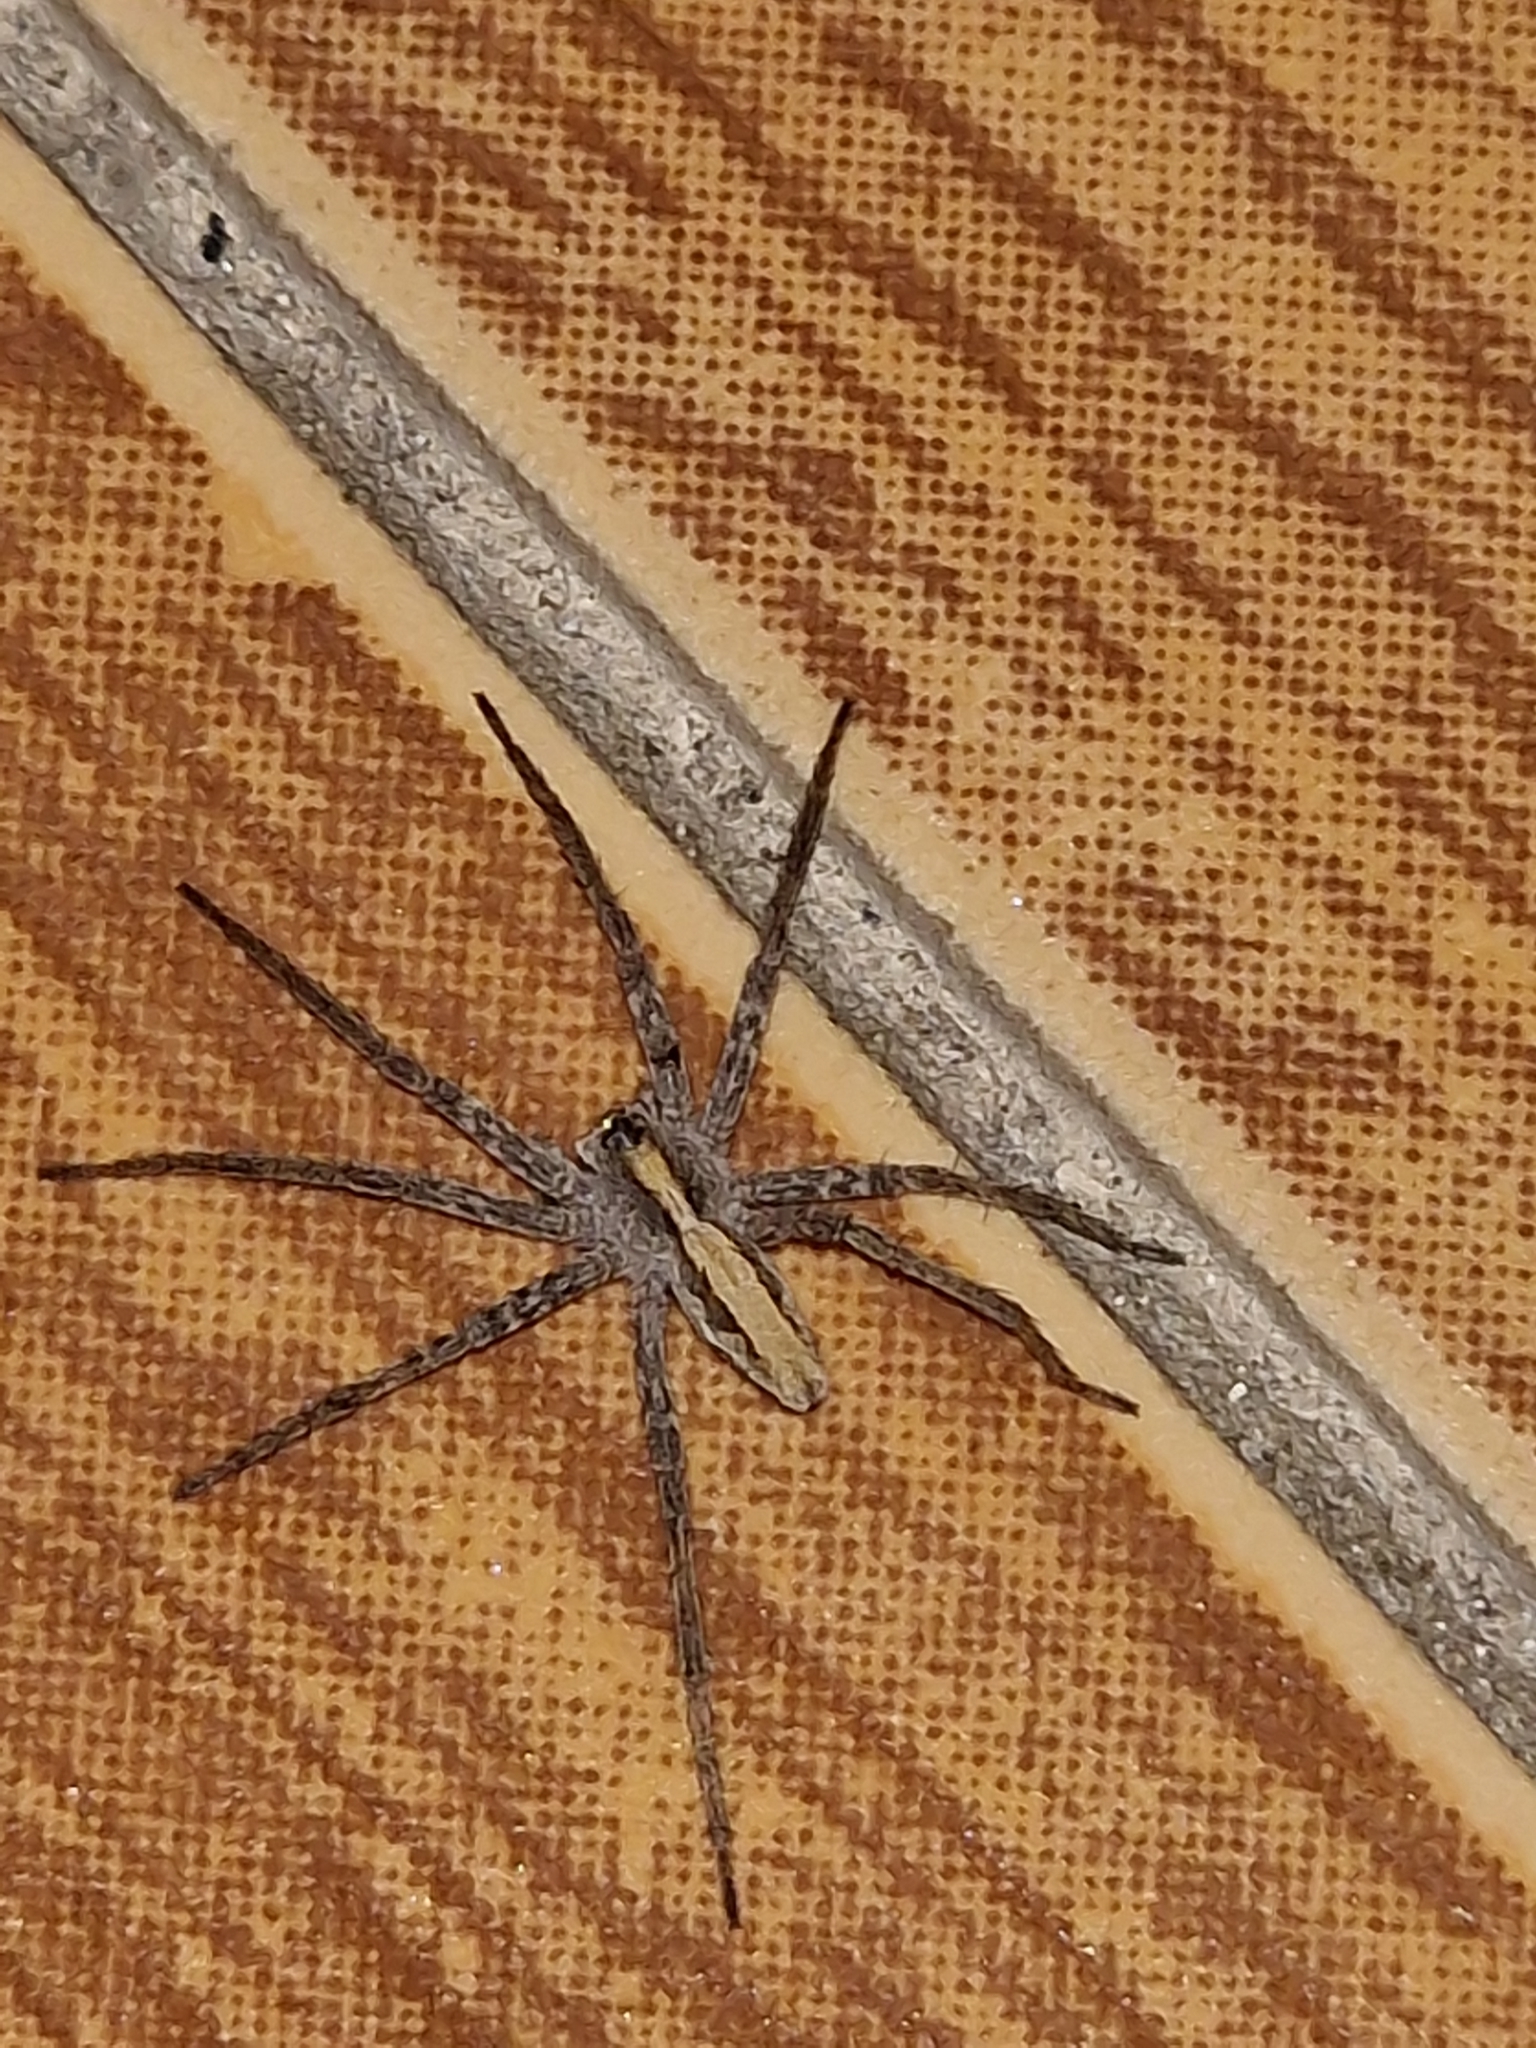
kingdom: Animalia
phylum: Arthropoda
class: Arachnida
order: Araneae
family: Pisauridae
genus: Pisaura
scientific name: Pisaura
